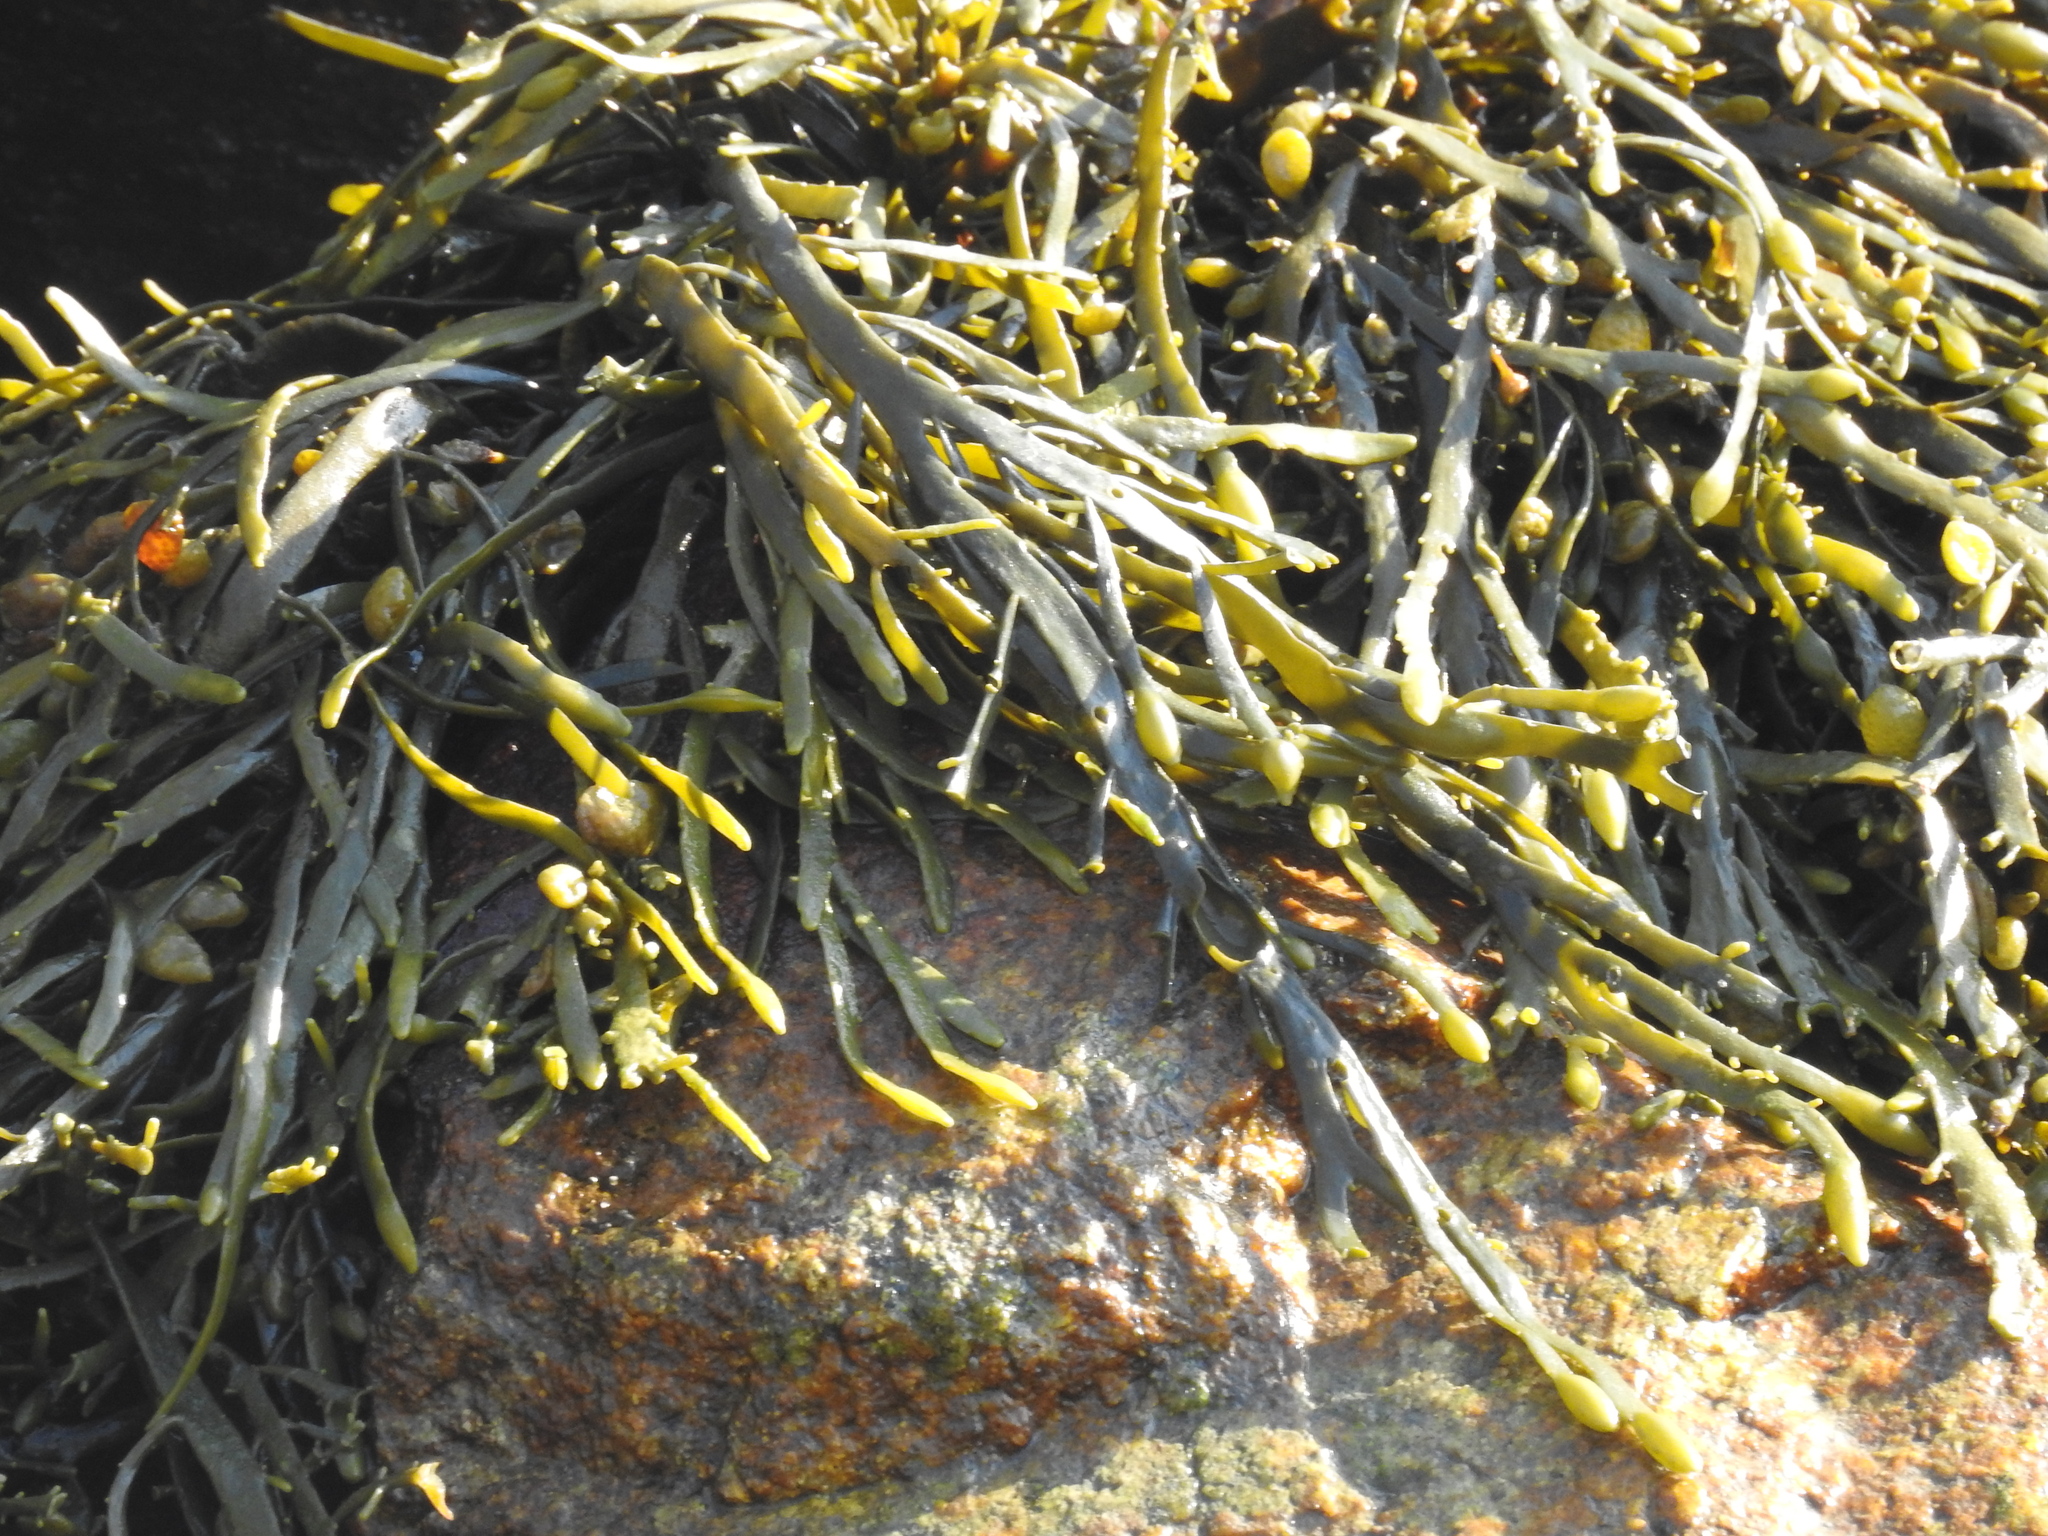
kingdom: Chromista
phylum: Ochrophyta
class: Phaeophyceae
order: Fucales
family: Fucaceae
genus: Ascophyllum
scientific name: Ascophyllum nodosum
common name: Knotted wrack
